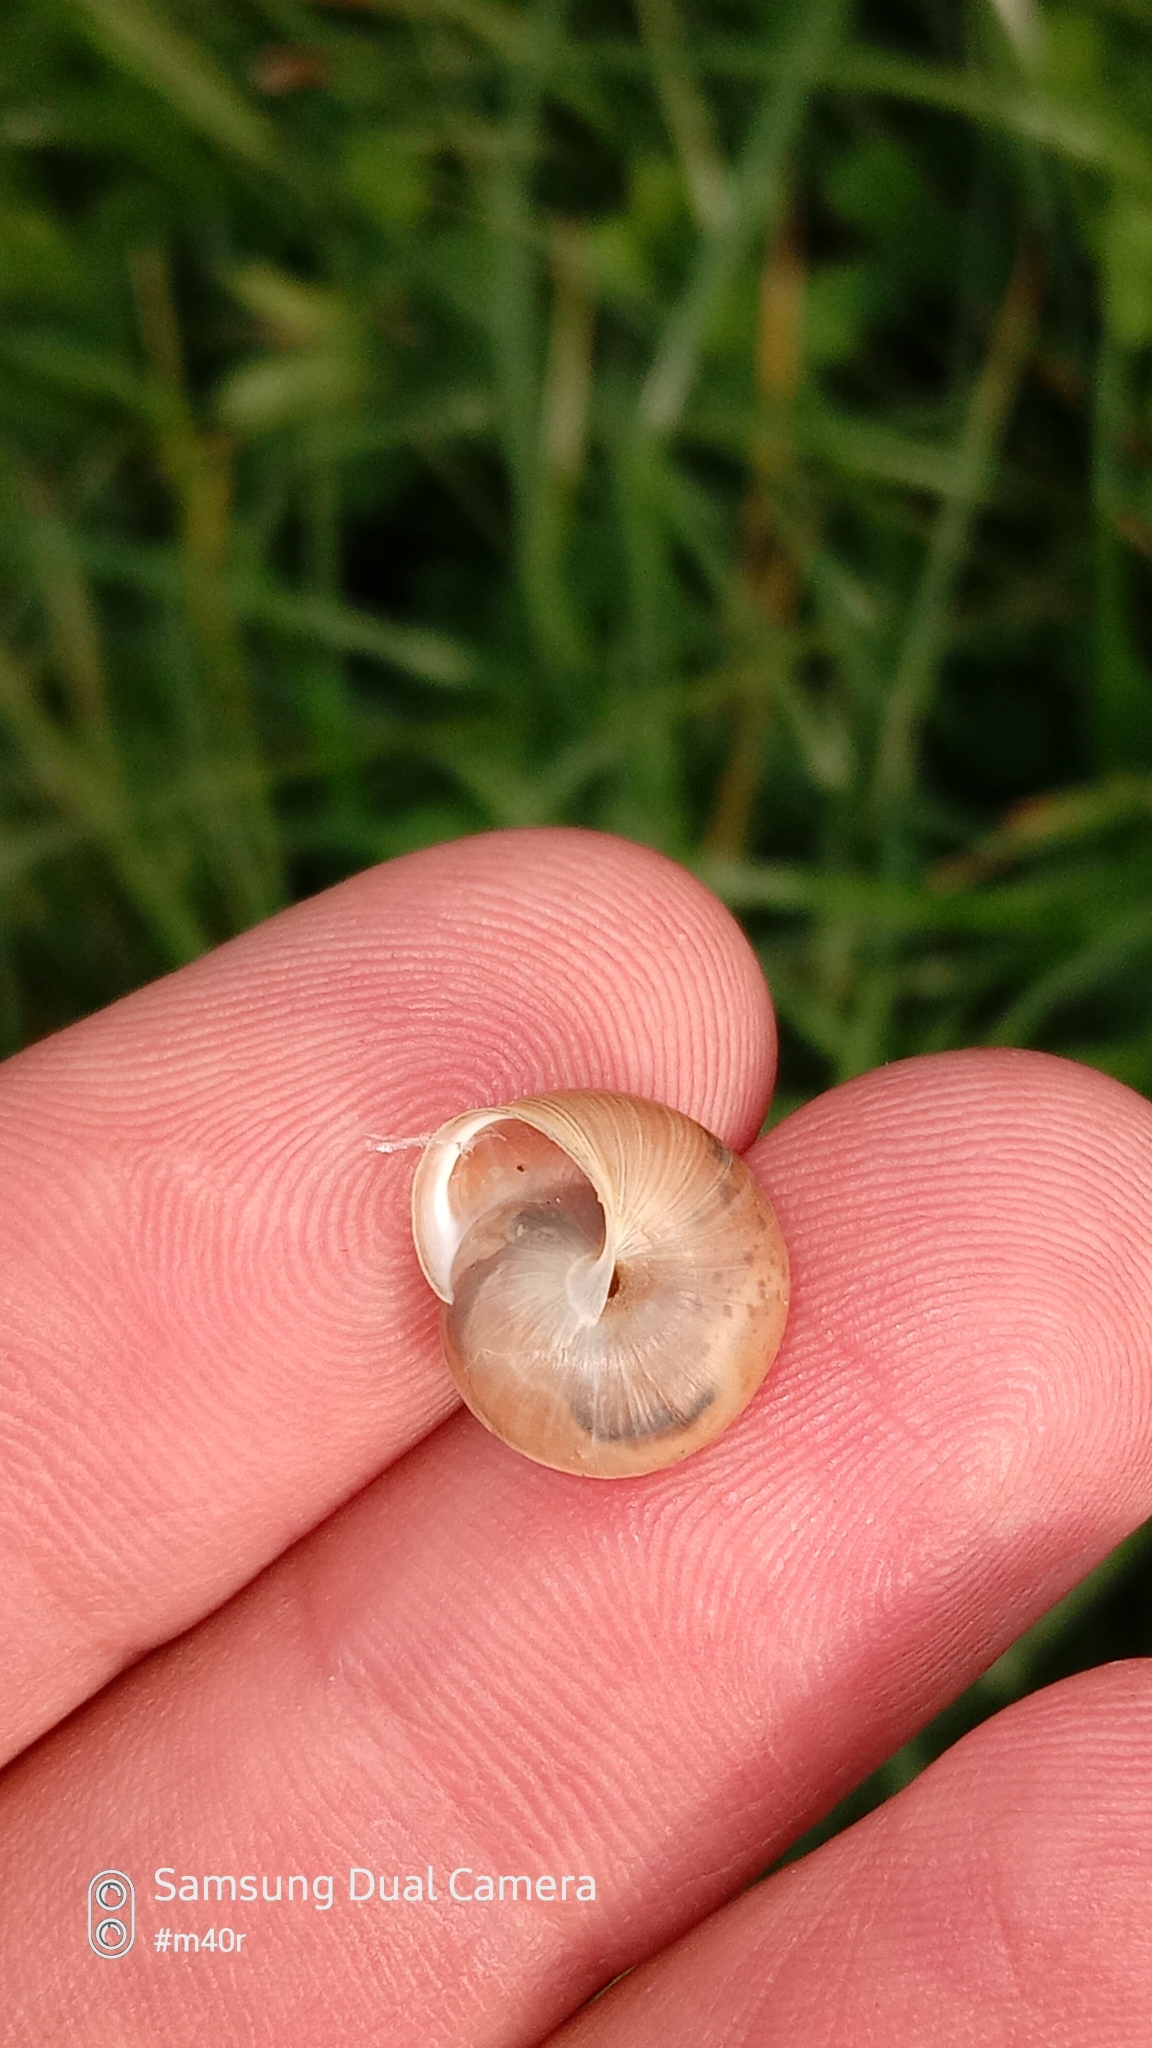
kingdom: Animalia
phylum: Mollusca
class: Gastropoda
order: Stylommatophora
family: Hygromiidae
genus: Harmozica
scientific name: Harmozica ravergiensis
